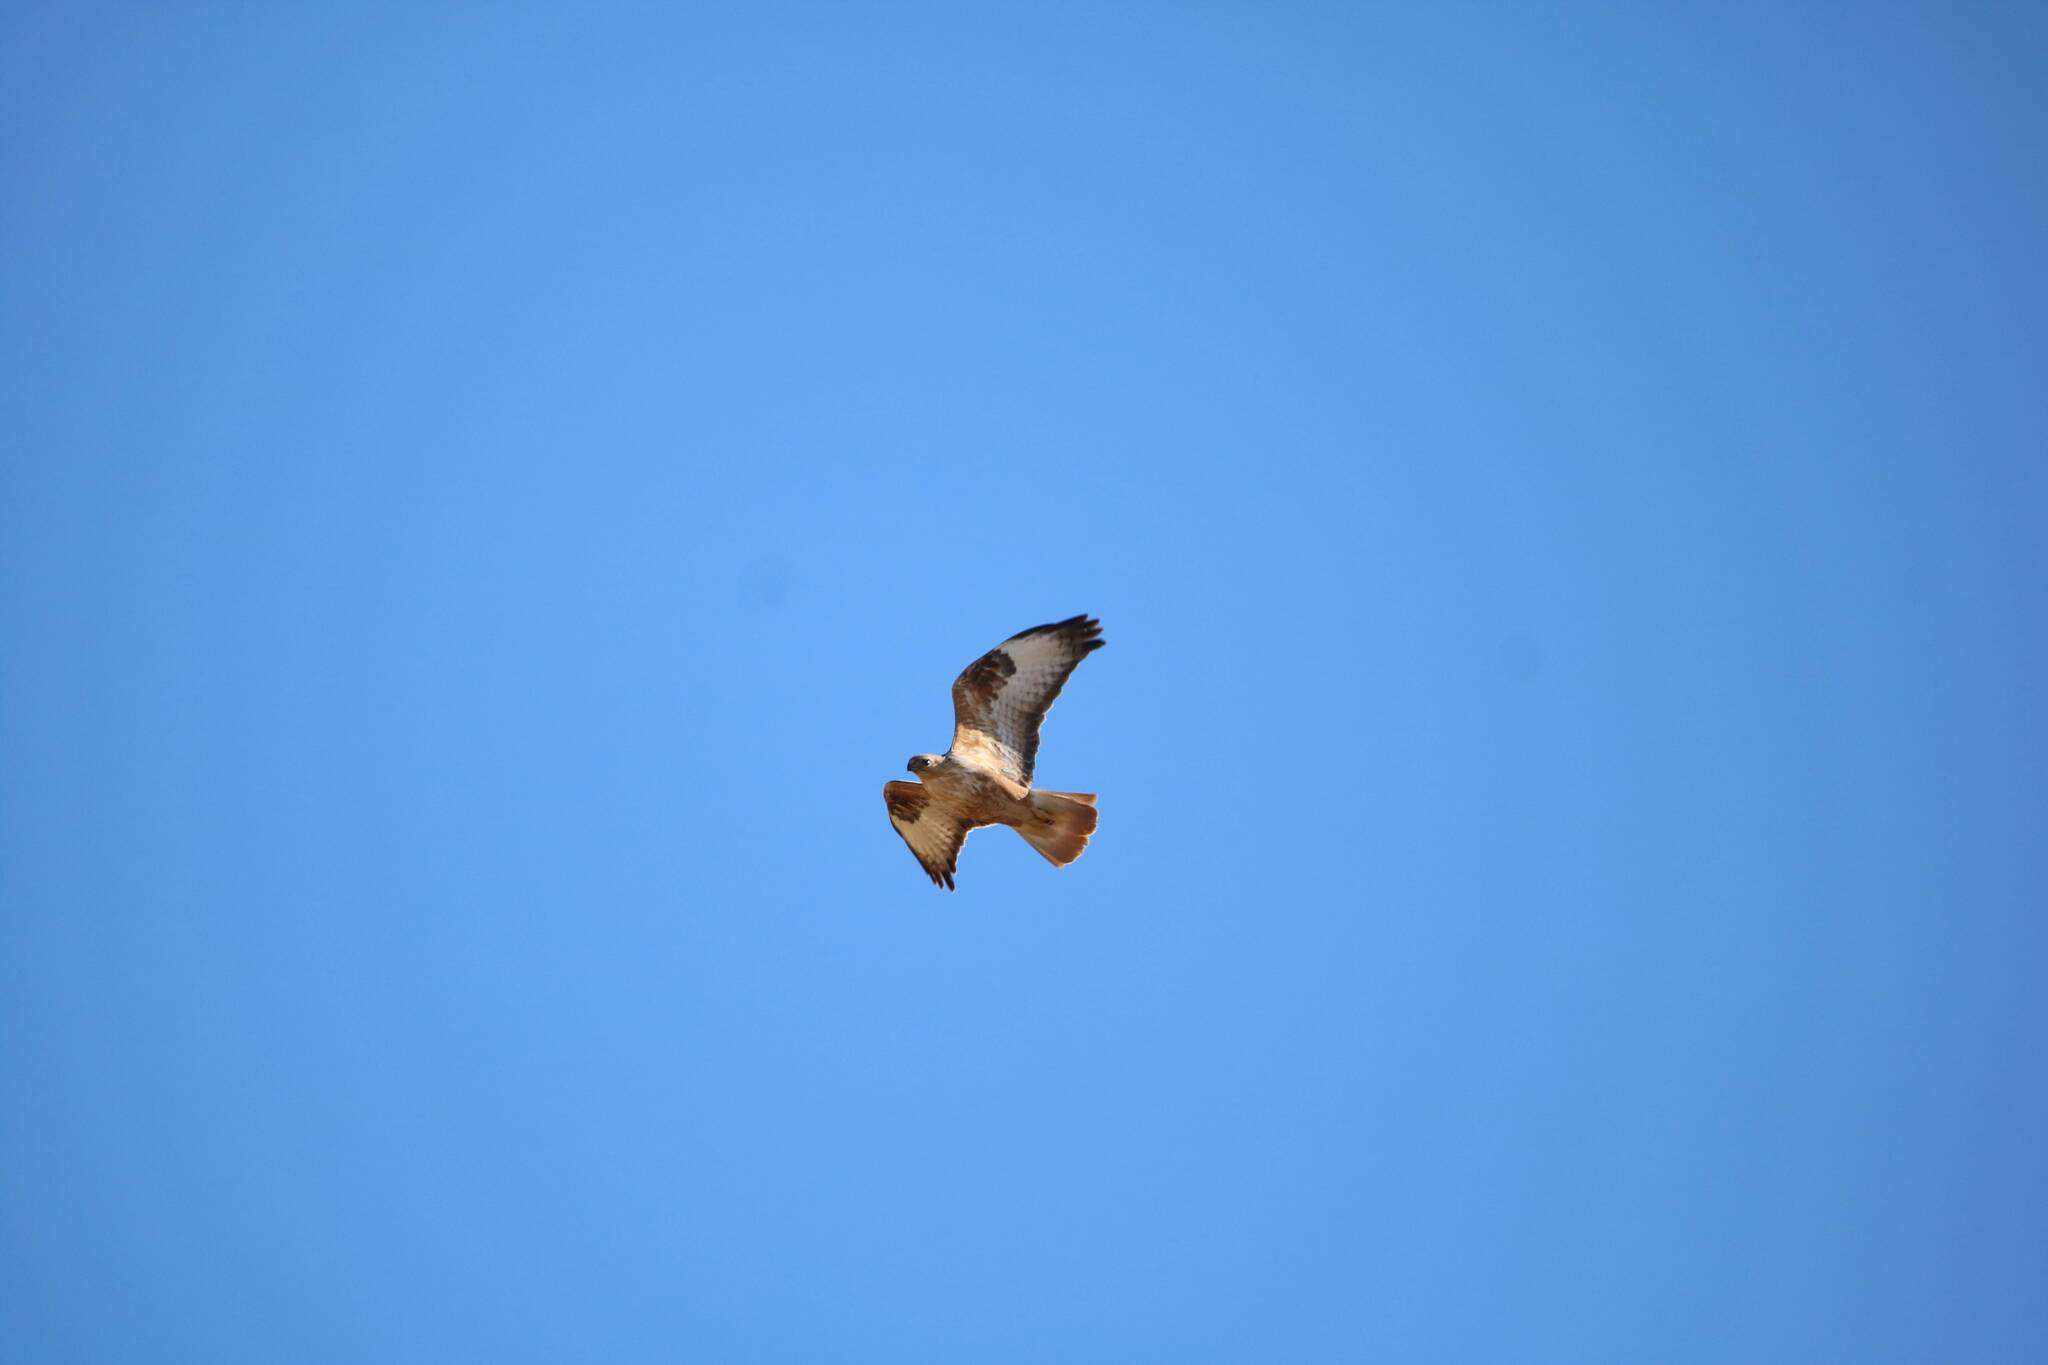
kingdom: Animalia
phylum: Chordata
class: Aves
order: Accipitriformes
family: Accipitridae
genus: Buteo
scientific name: Buteo rufinus
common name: Long-legged buzzard
